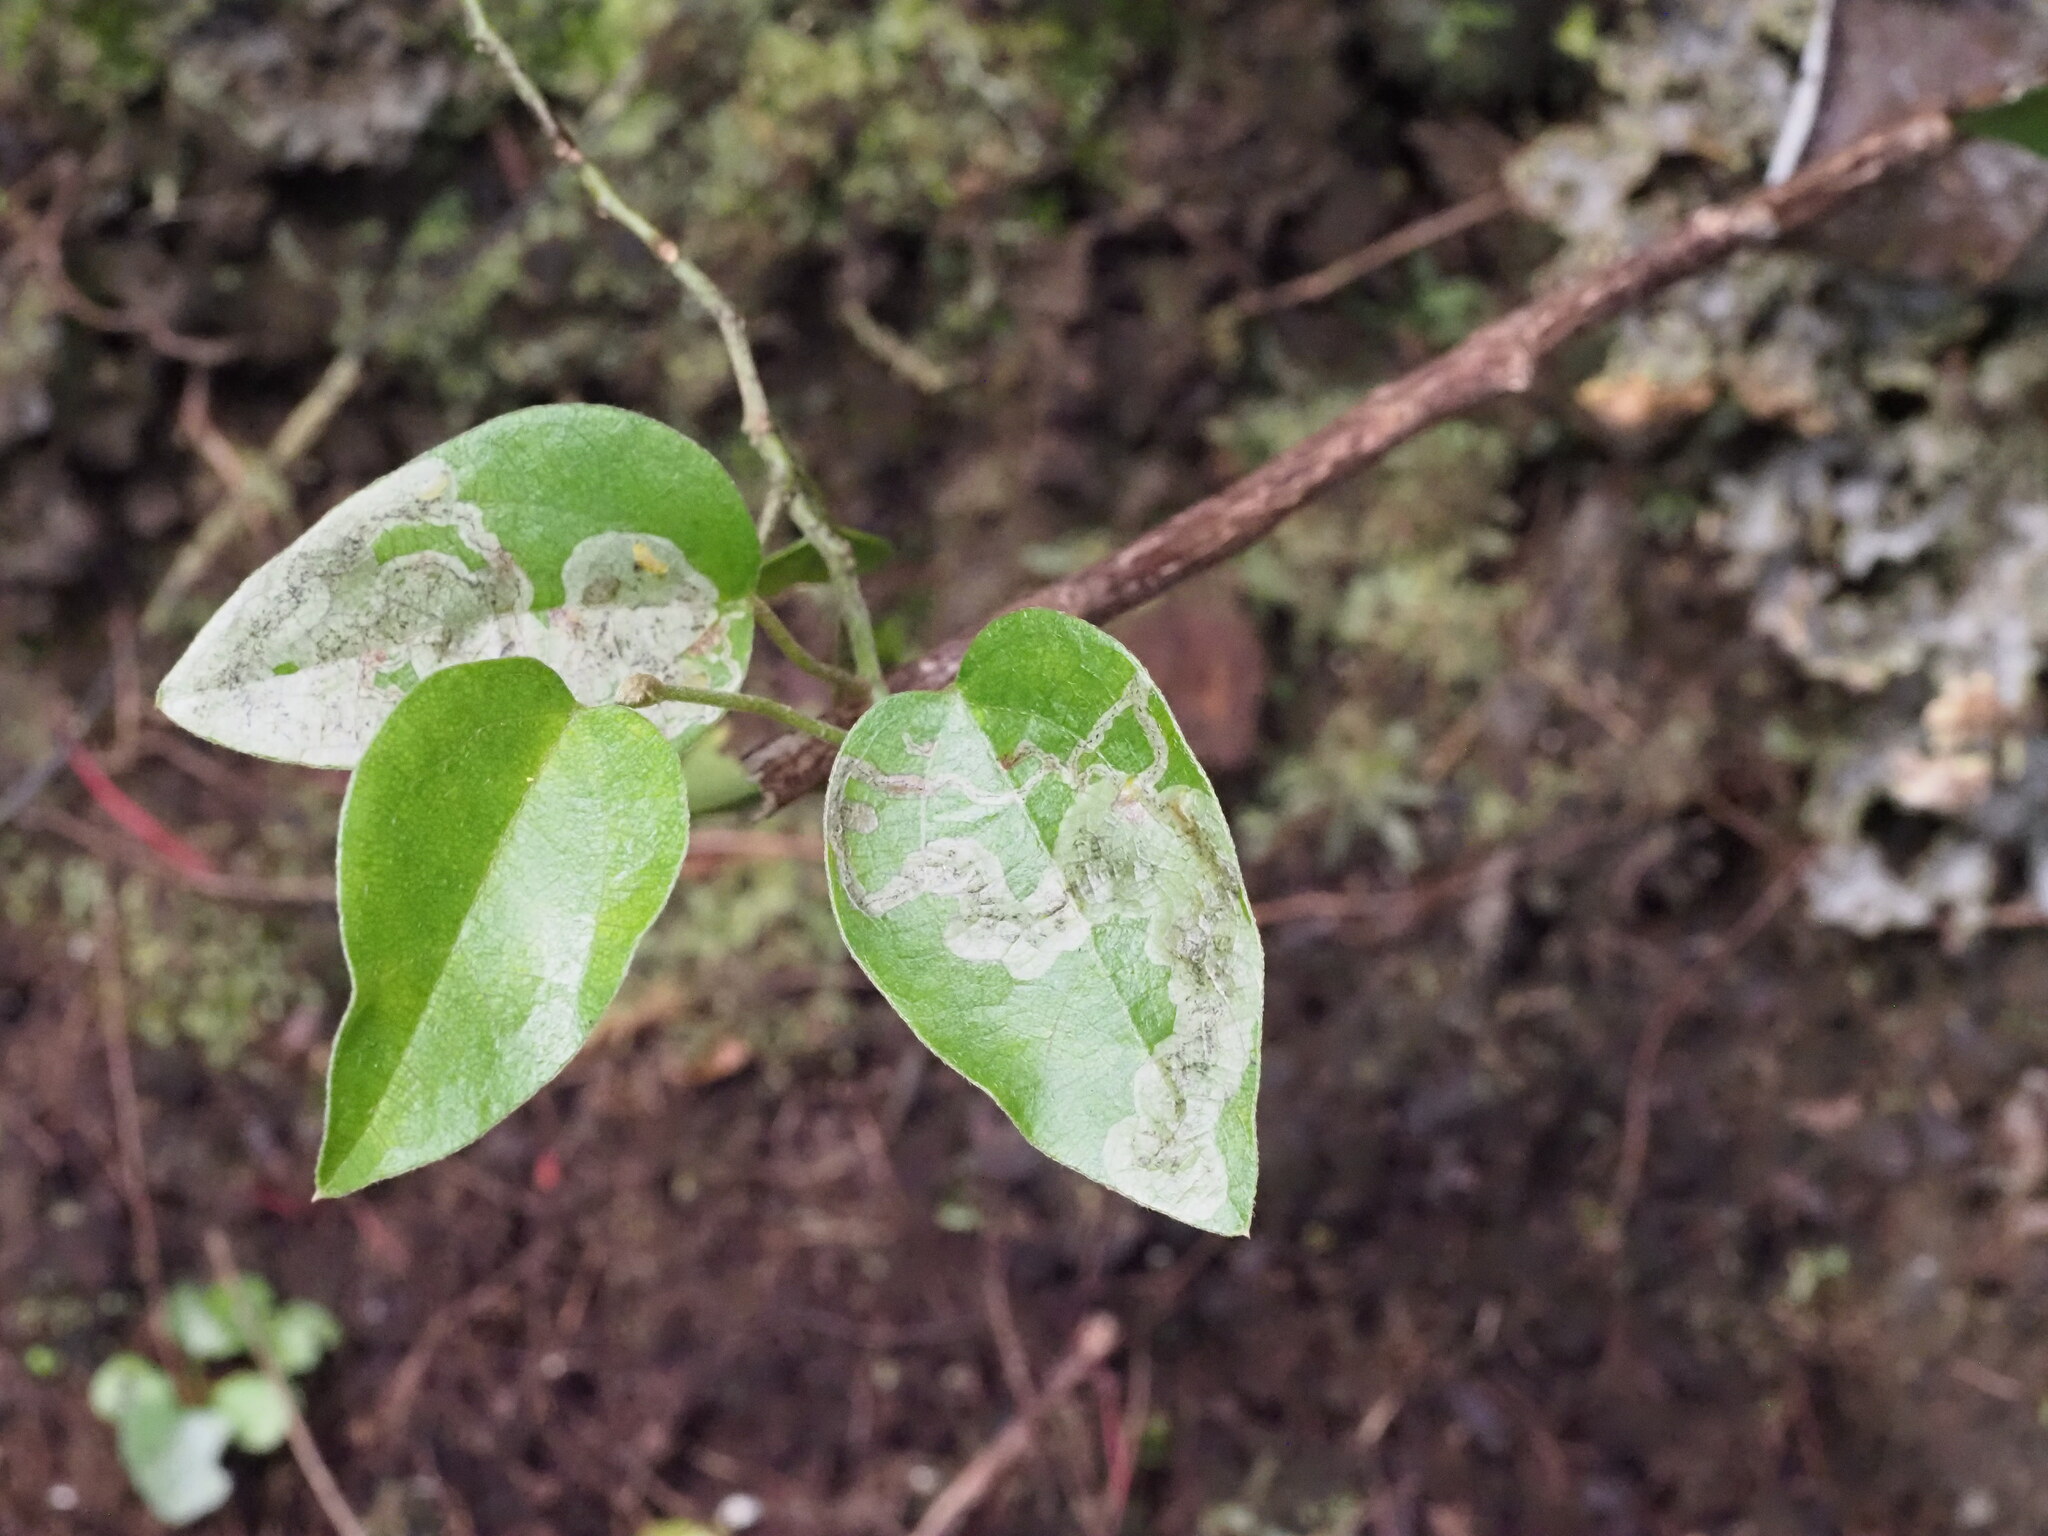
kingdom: Animalia
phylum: Arthropoda
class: Insecta
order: Diptera
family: Agromyzidae
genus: Liriomyza
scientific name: Liriomyza cocculi
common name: Leafminer fly
